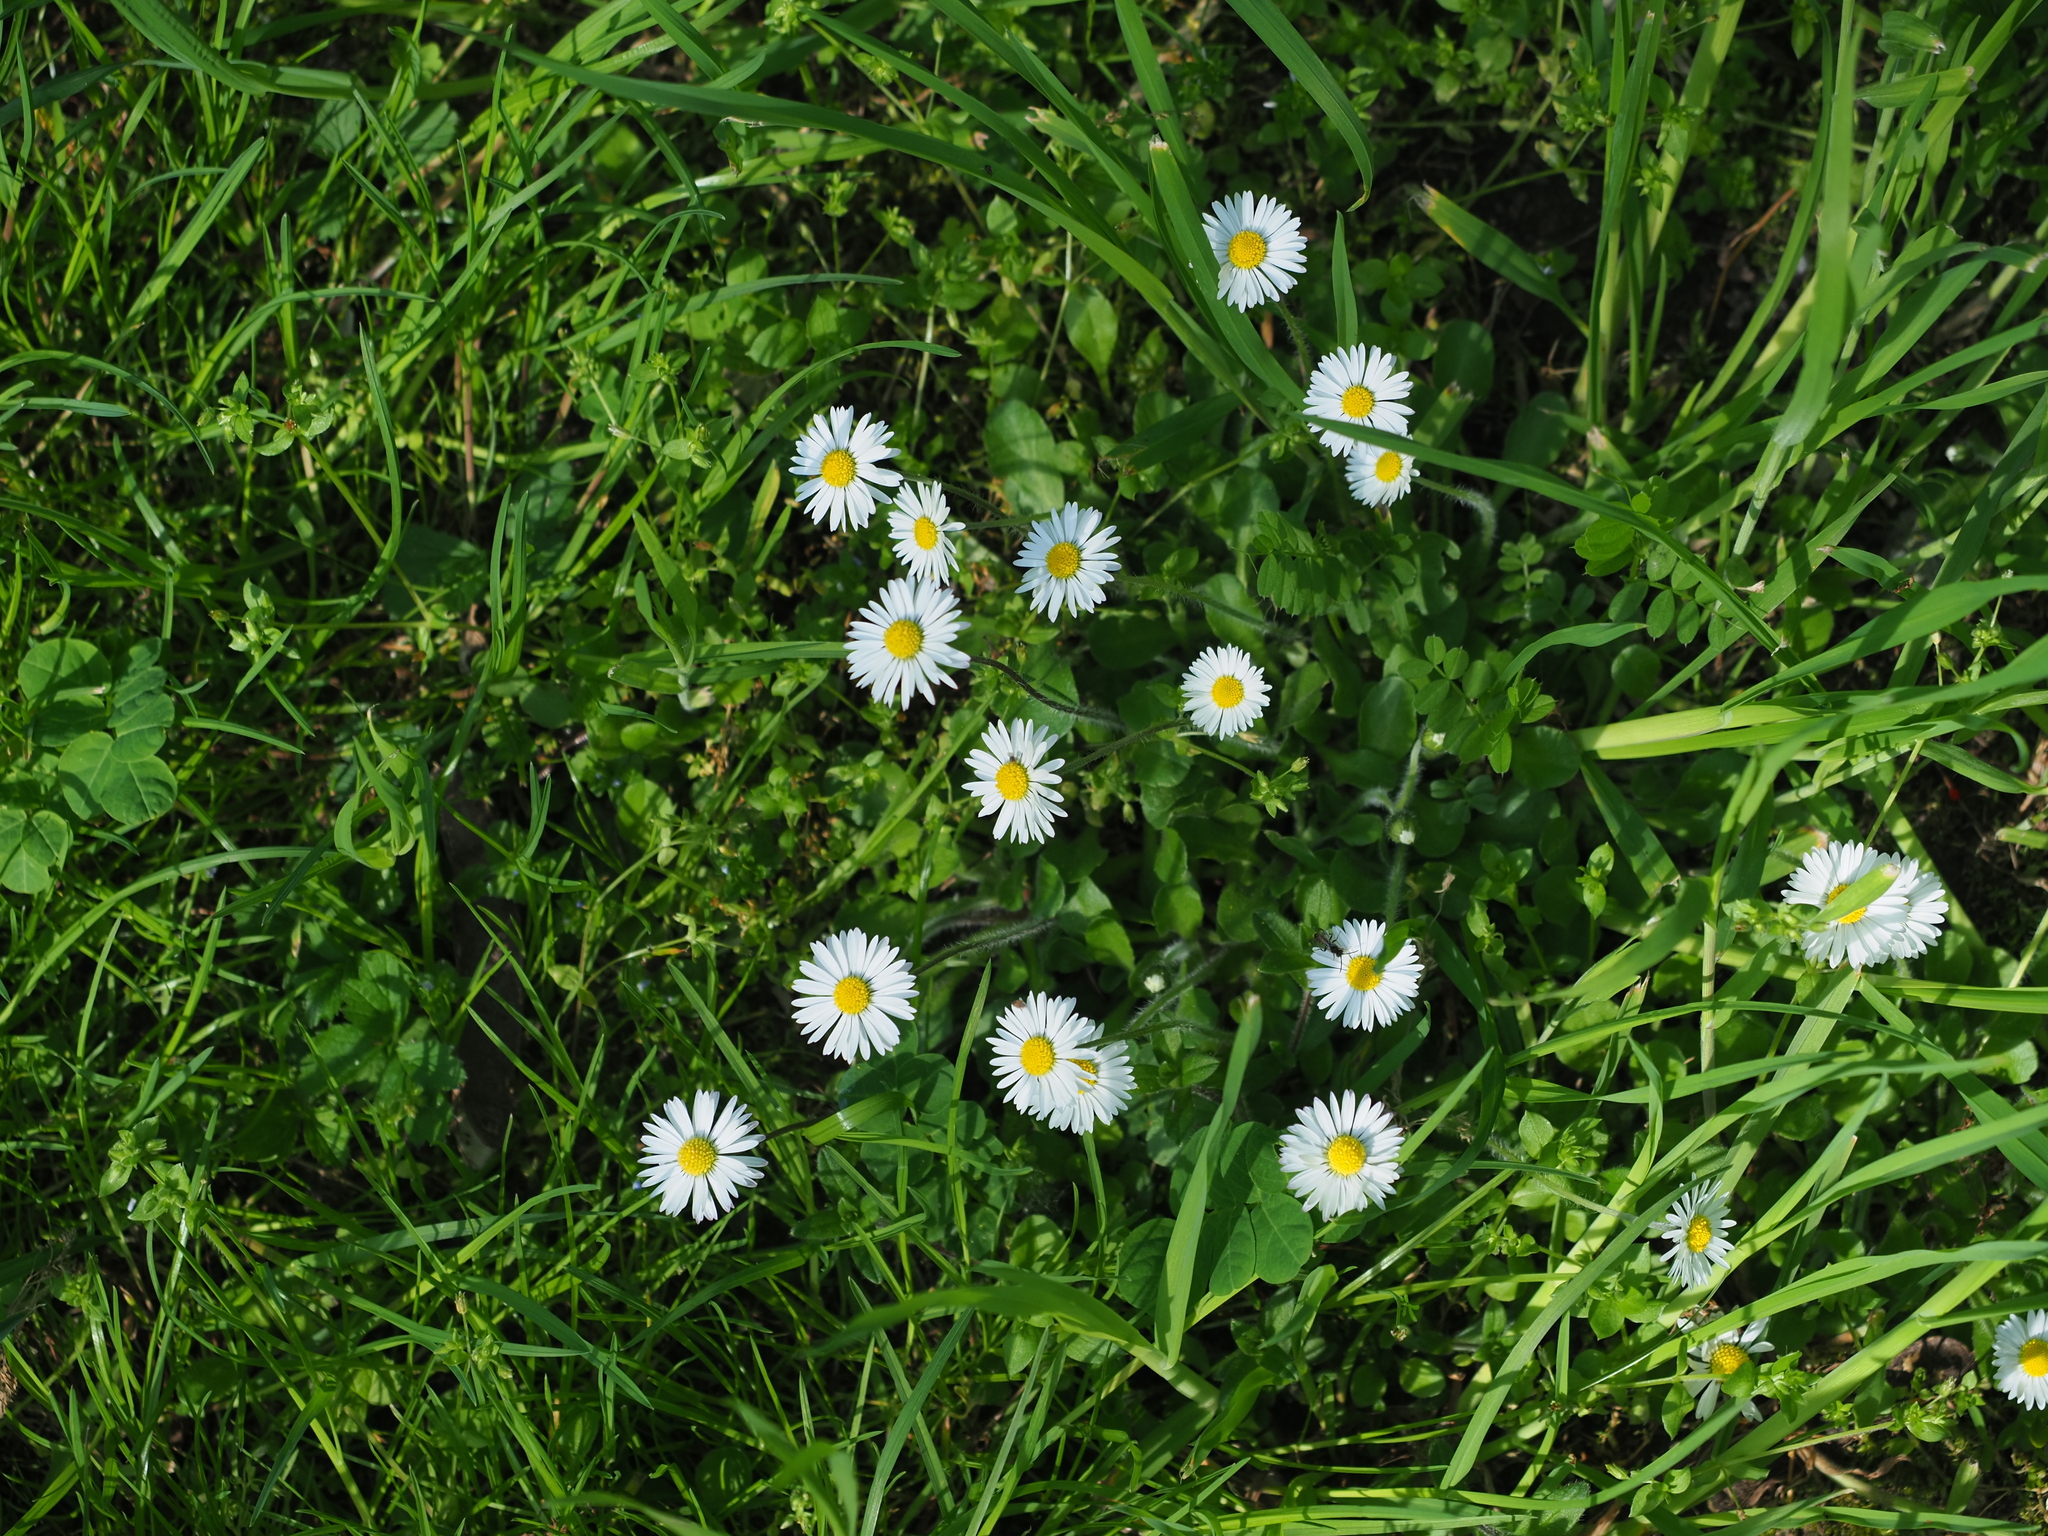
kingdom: Plantae
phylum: Tracheophyta
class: Magnoliopsida
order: Asterales
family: Asteraceae
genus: Bellis
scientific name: Bellis perennis
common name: Lawndaisy
